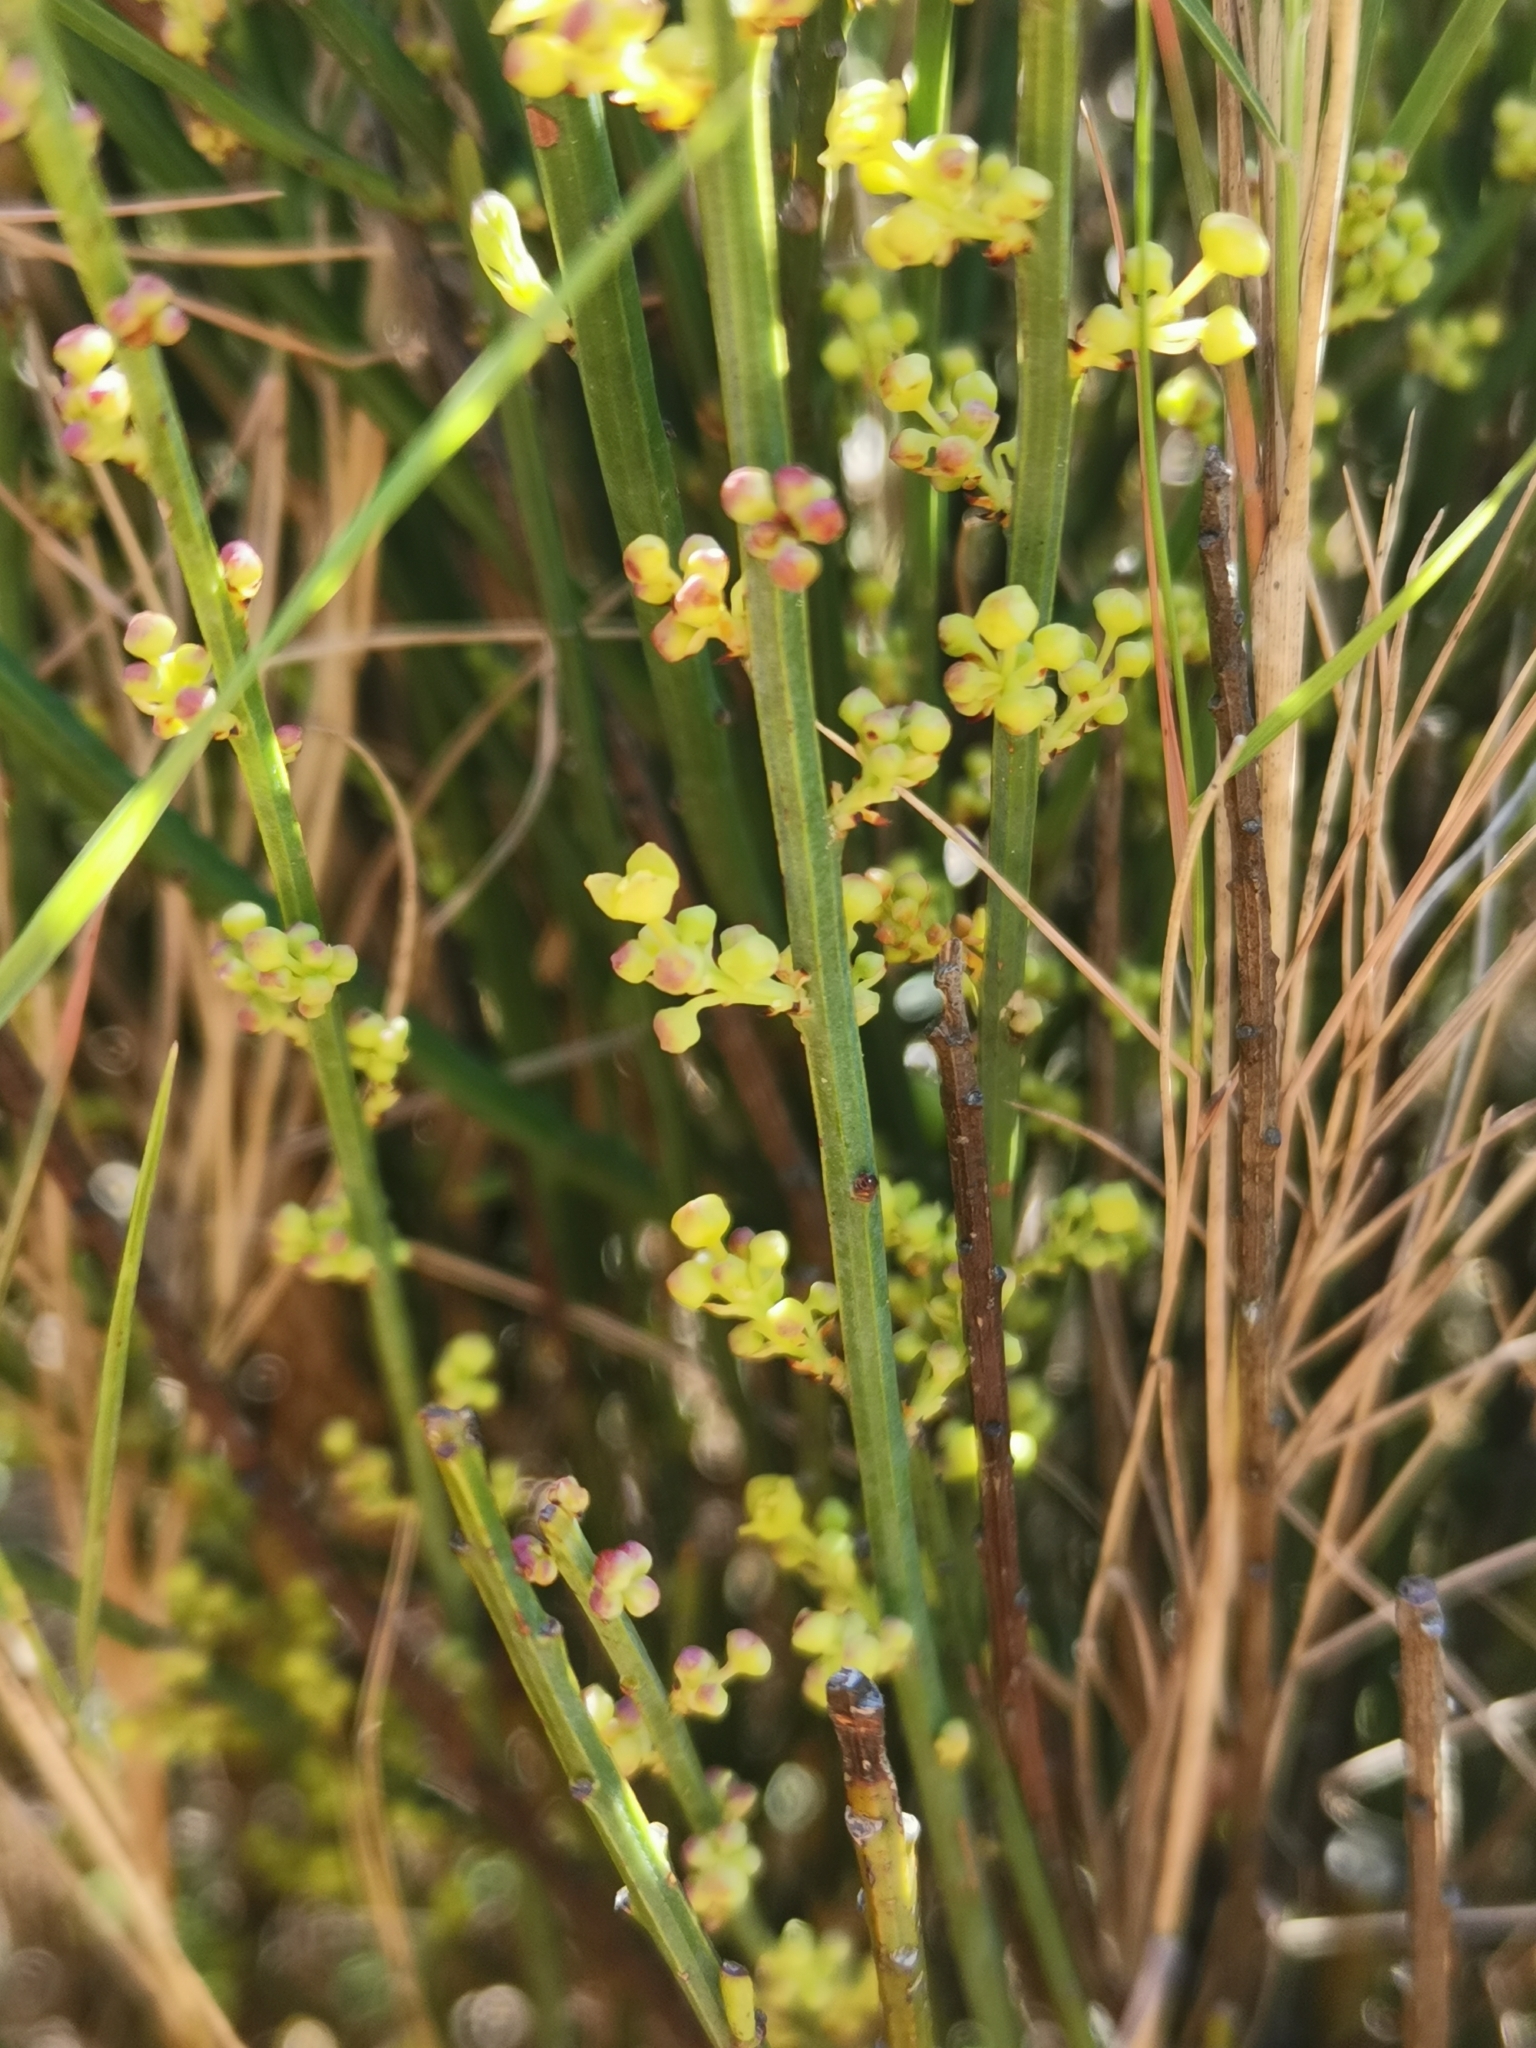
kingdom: Plantae
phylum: Tracheophyta
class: Gnetopsida
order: Ephedrales
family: Ephedraceae
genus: Ephedra
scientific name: Ephedra major
